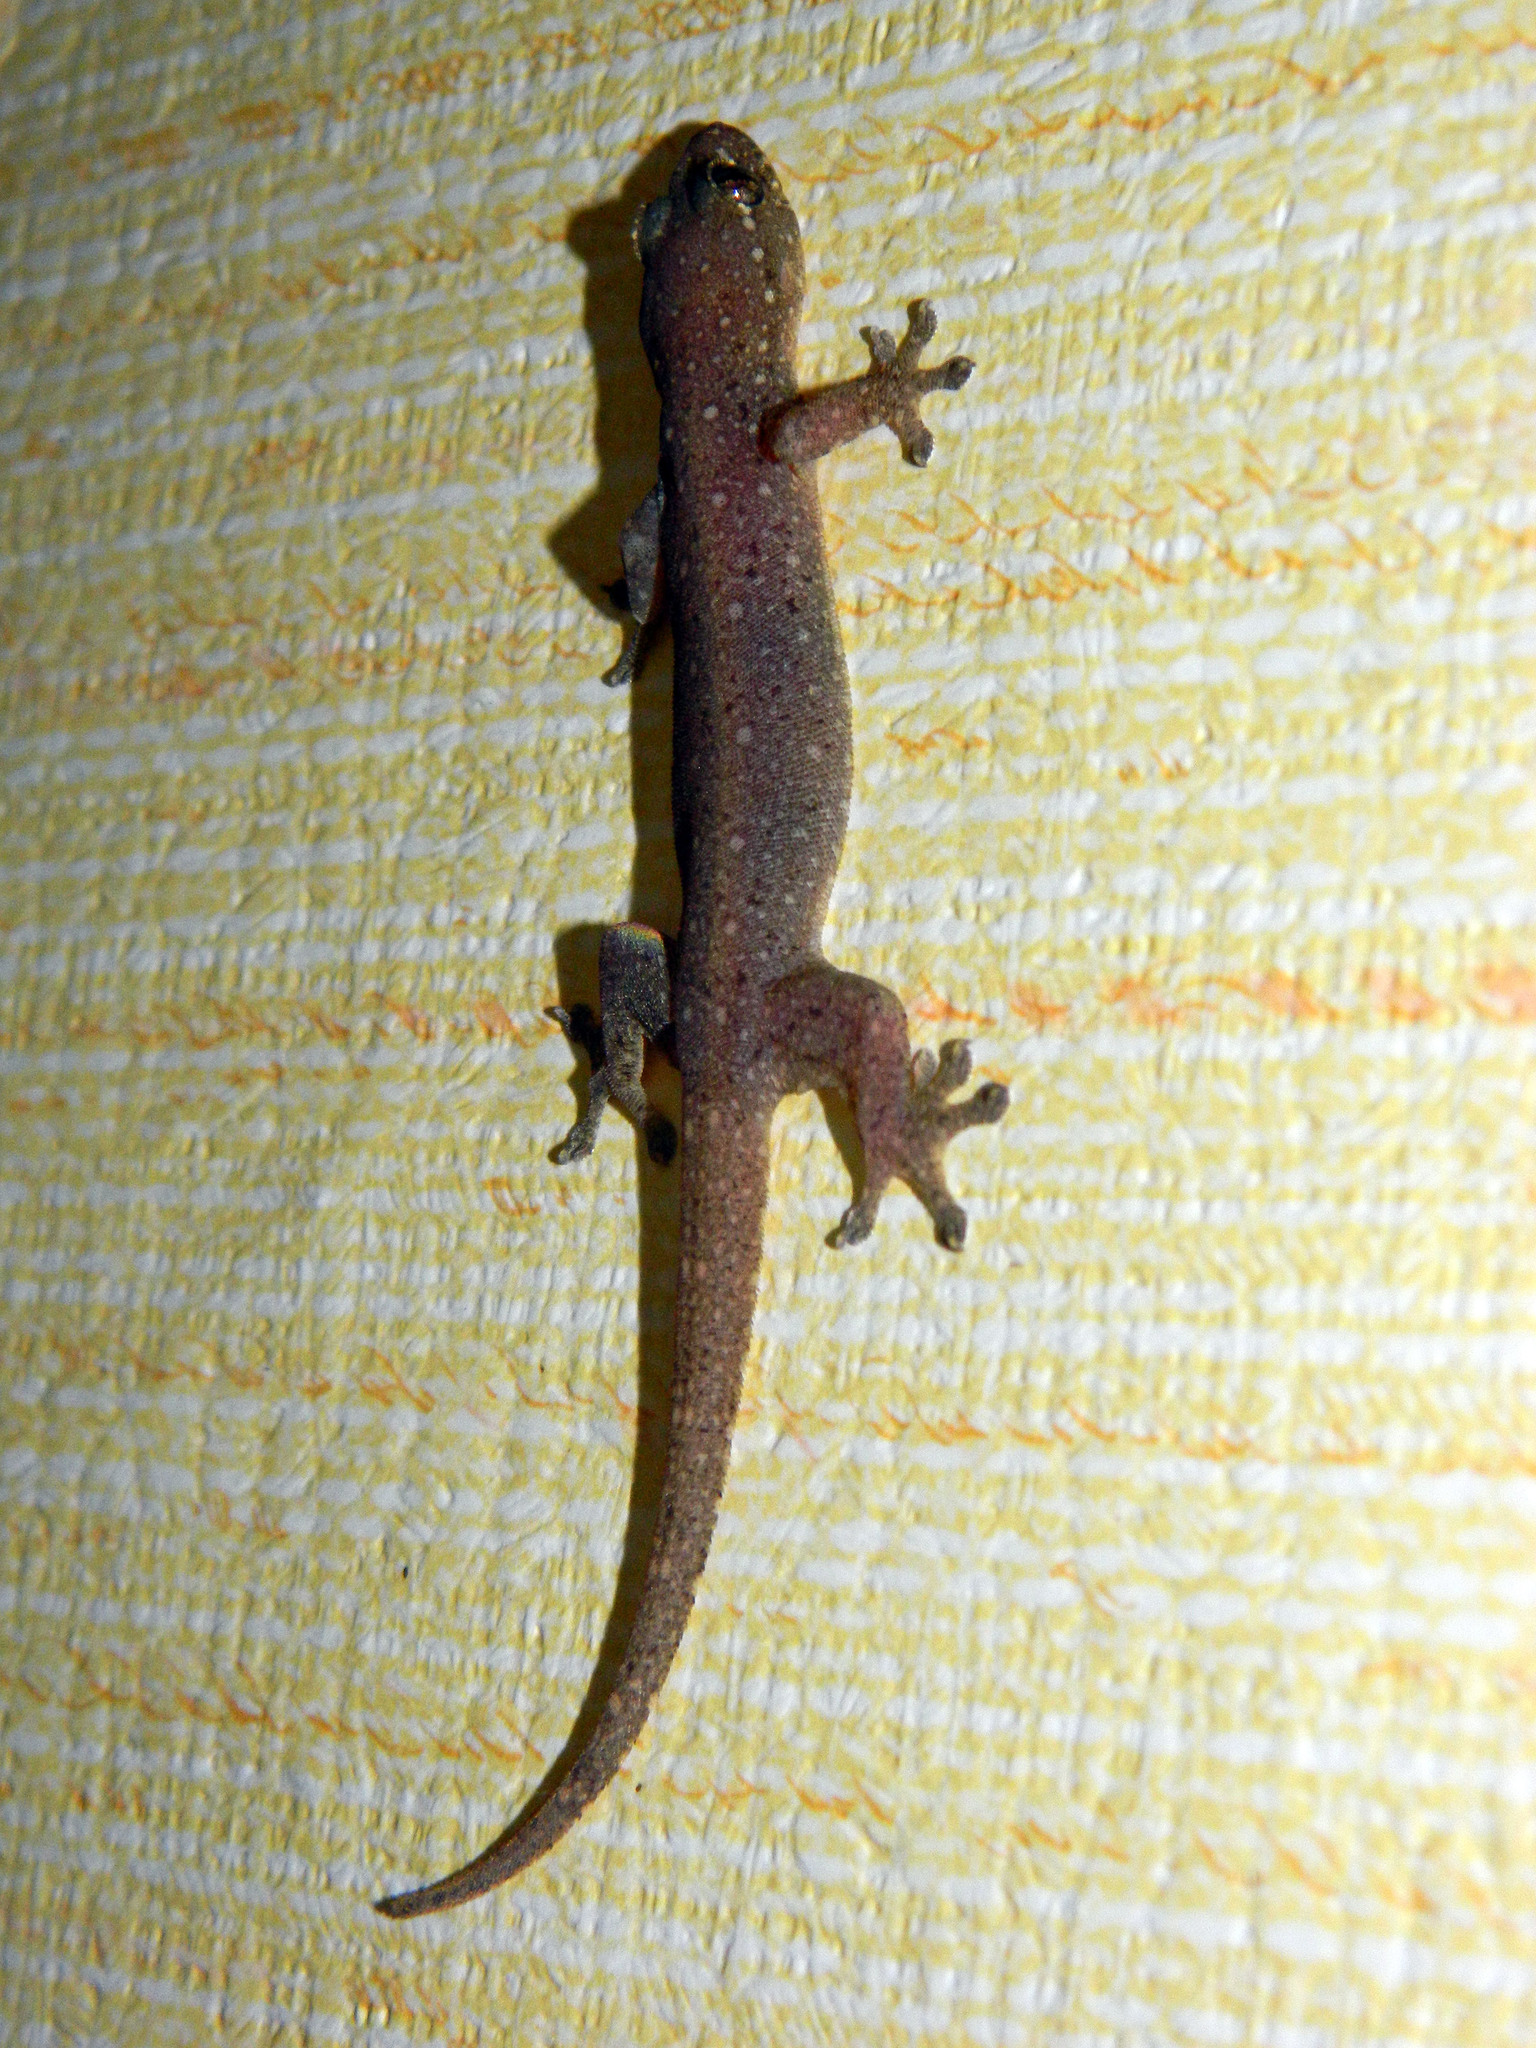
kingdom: Animalia
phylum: Chordata
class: Squamata
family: Gekkonidae
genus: Gehyra
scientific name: Gehyra mutilata
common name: Stump-toed gecko
